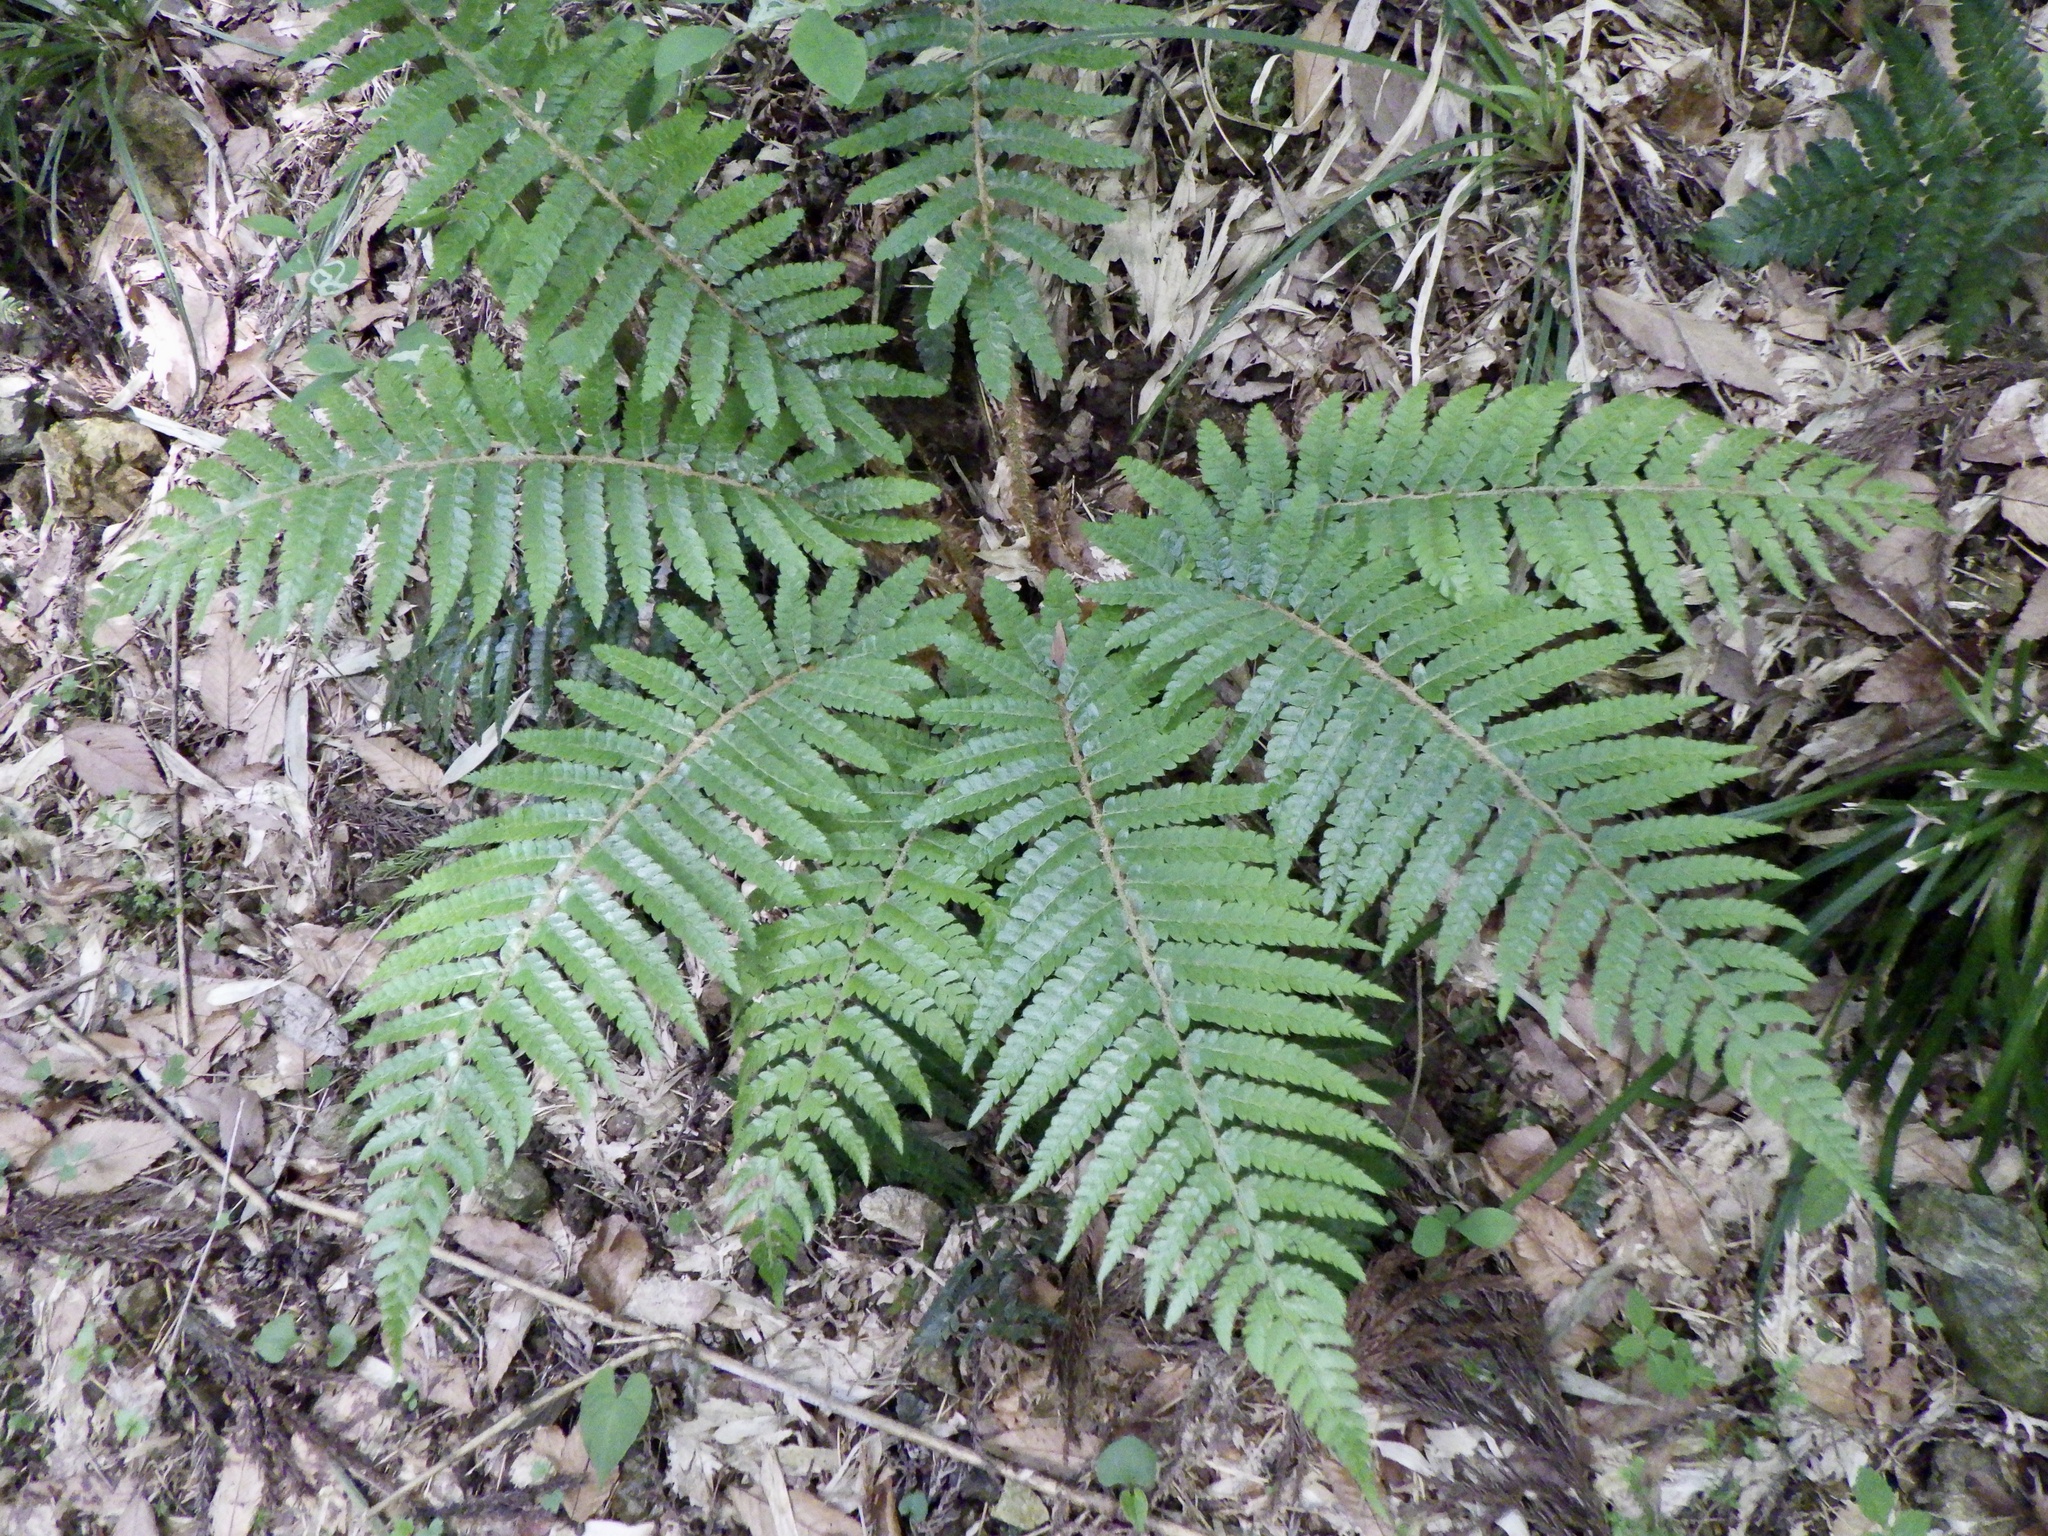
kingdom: Plantae
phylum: Tracheophyta
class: Polypodiopsida
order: Polypodiales
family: Dryopteridaceae
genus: Polystichum
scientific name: Polystichum luctuosum
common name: Korean rockfern
